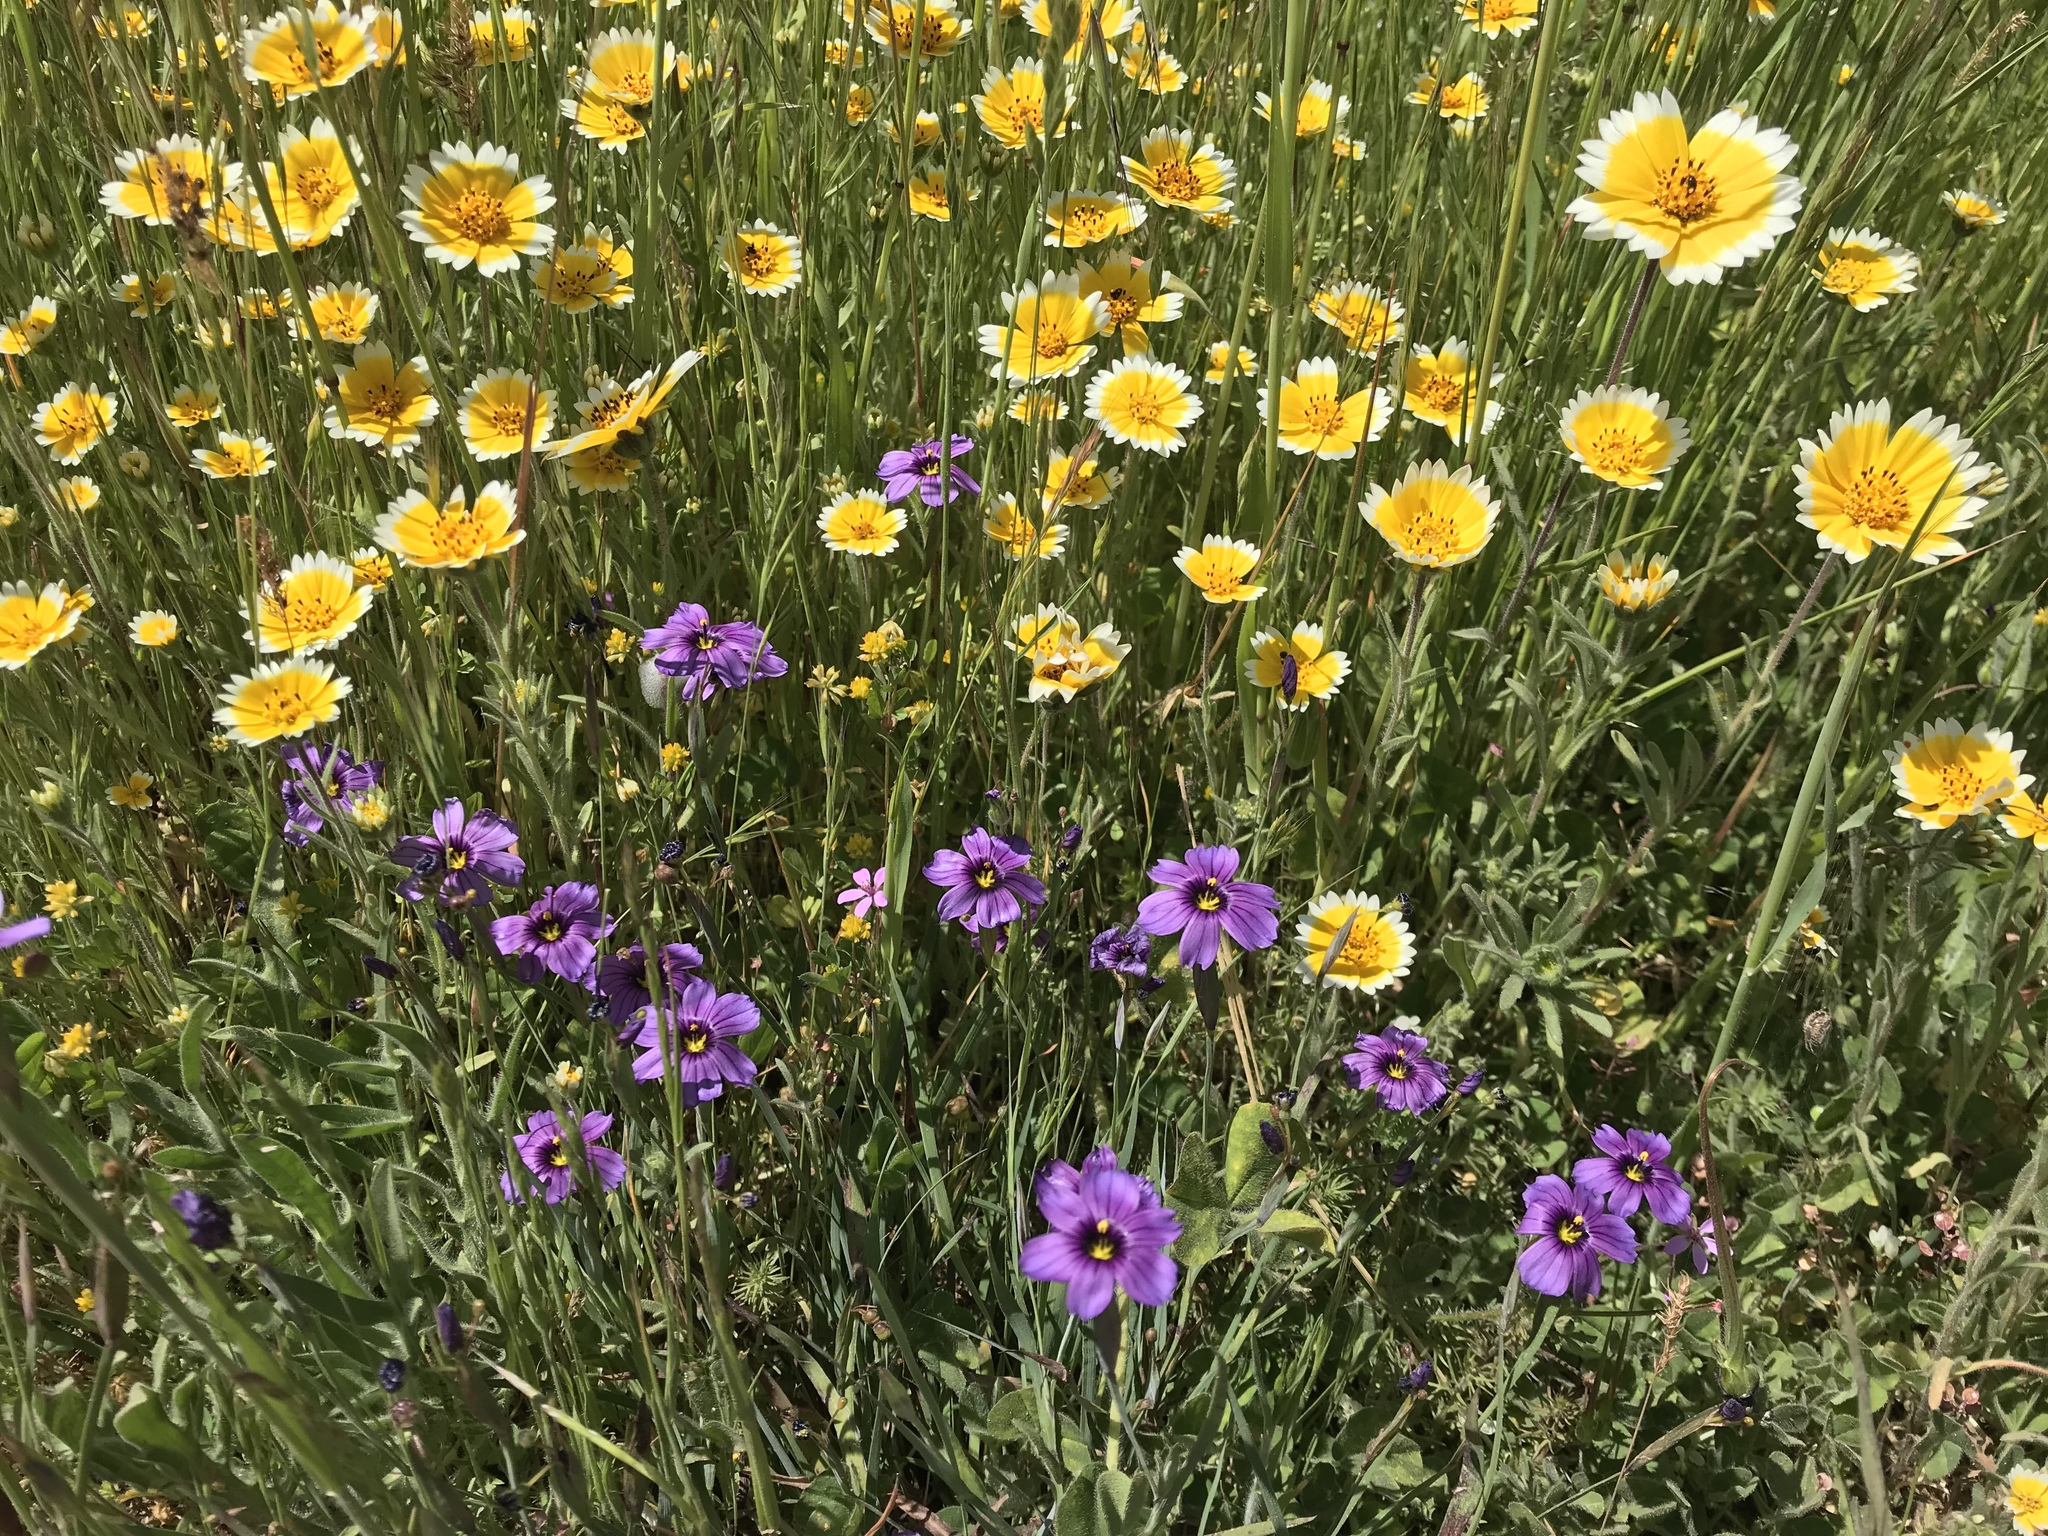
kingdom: Plantae
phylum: Tracheophyta
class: Liliopsida
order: Asparagales
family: Iridaceae
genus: Sisyrinchium
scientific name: Sisyrinchium bellum
